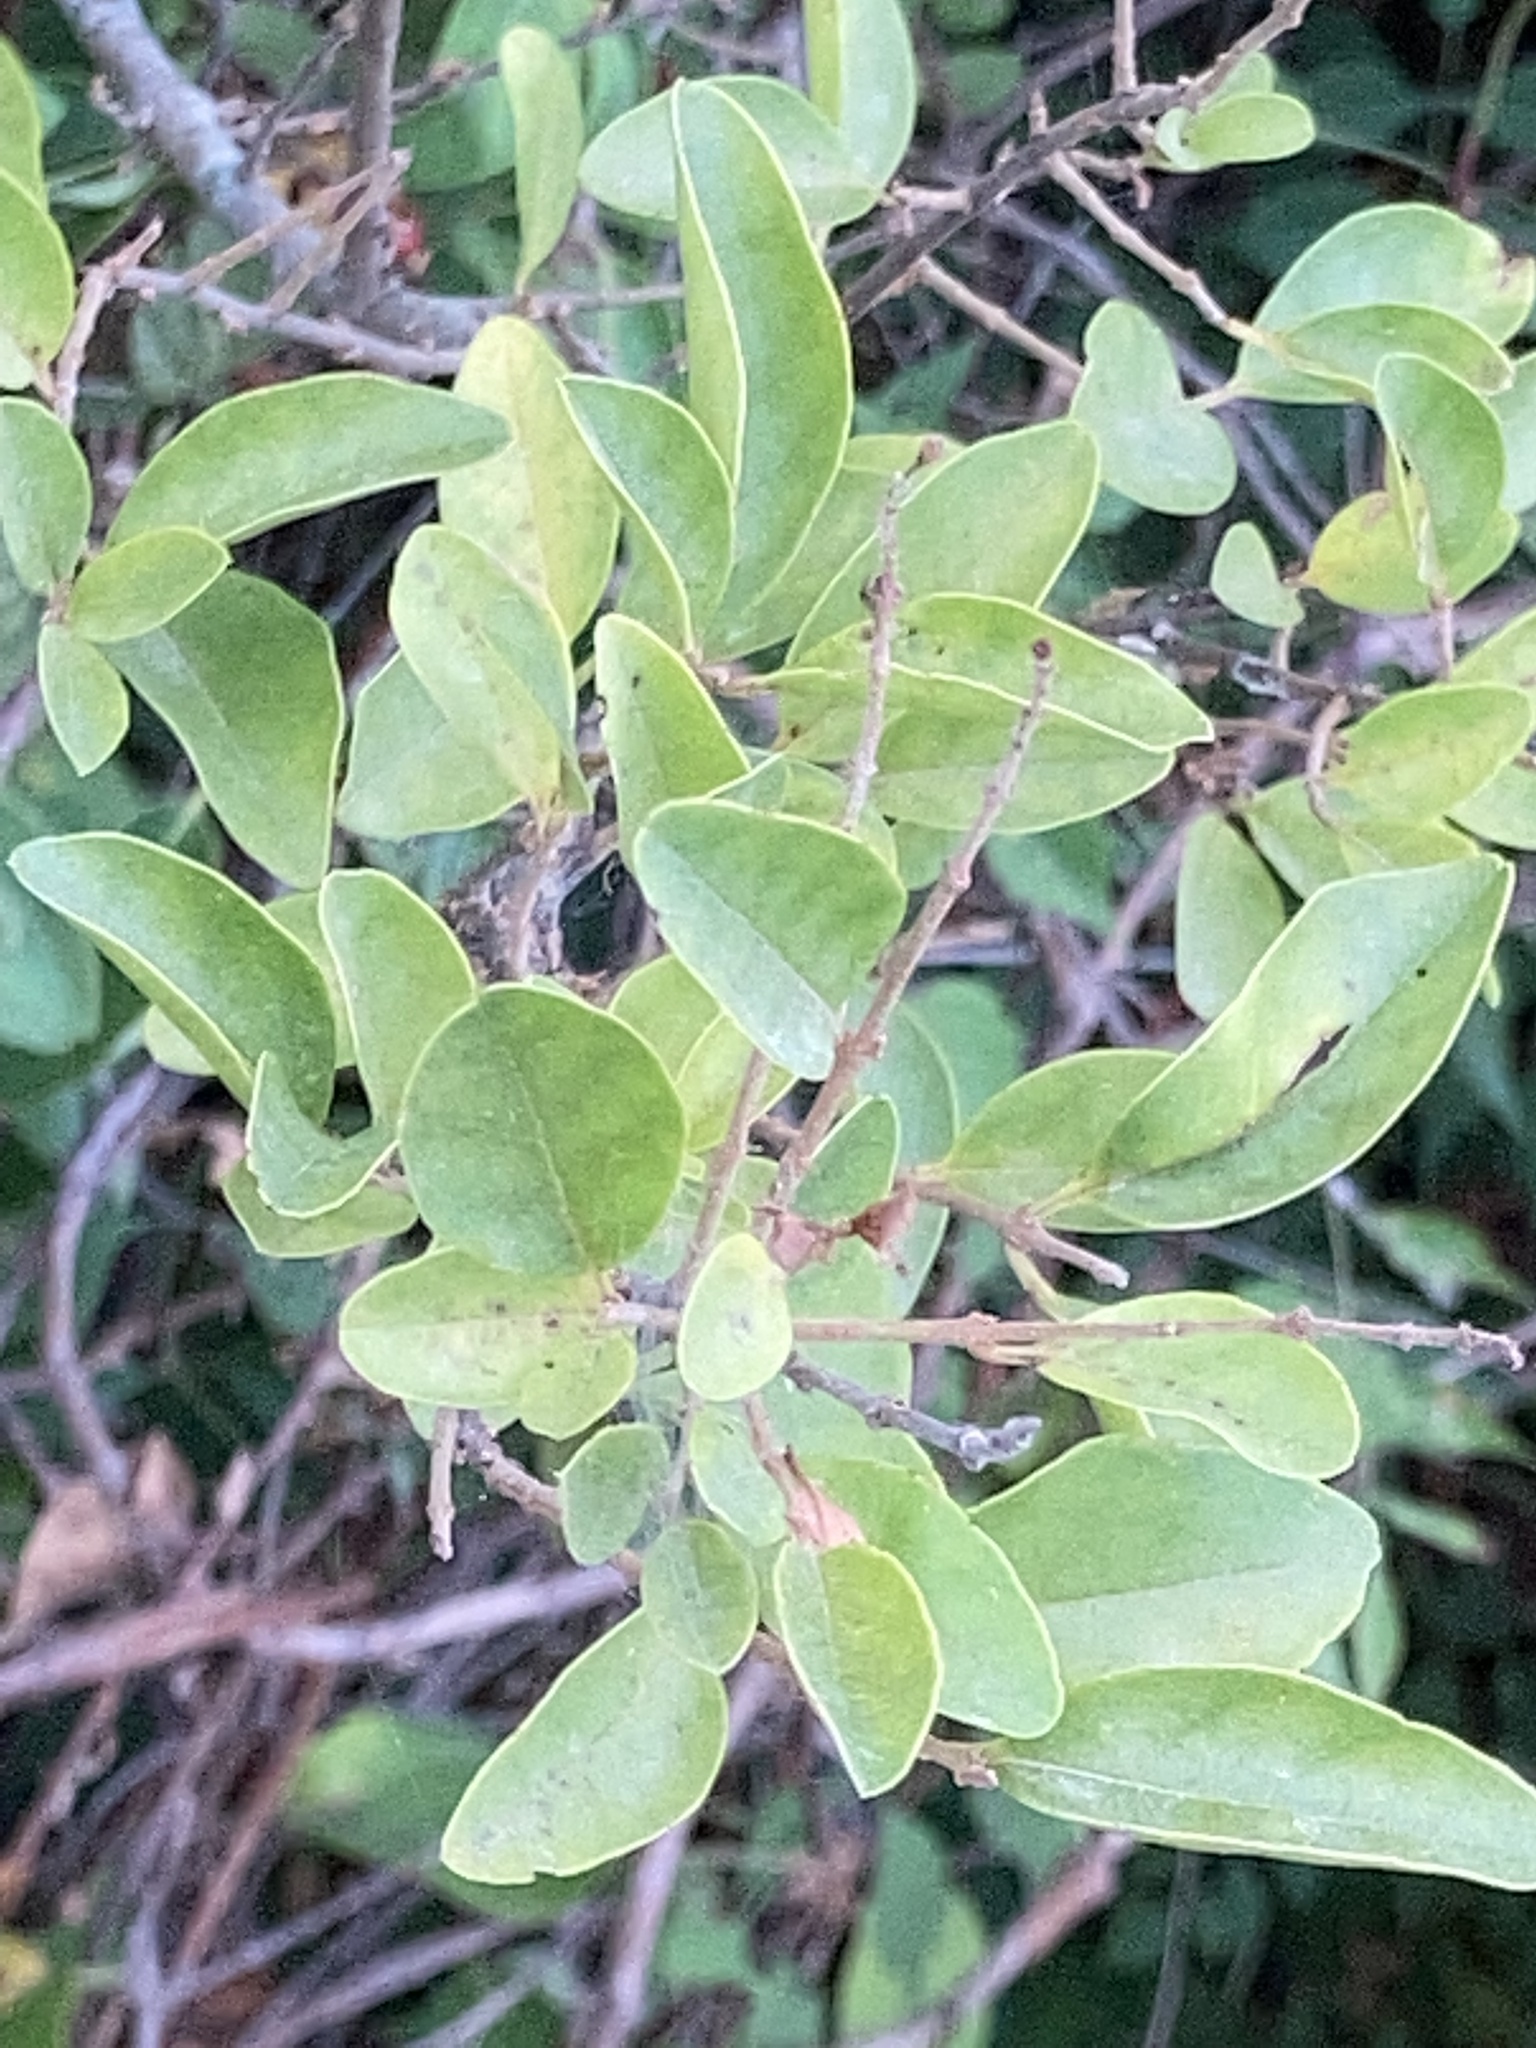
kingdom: Plantae
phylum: Tracheophyta
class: Magnoliopsida
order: Lamiales
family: Oleaceae
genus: Ligustrum
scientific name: Ligustrum sinense
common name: Chinese privet
